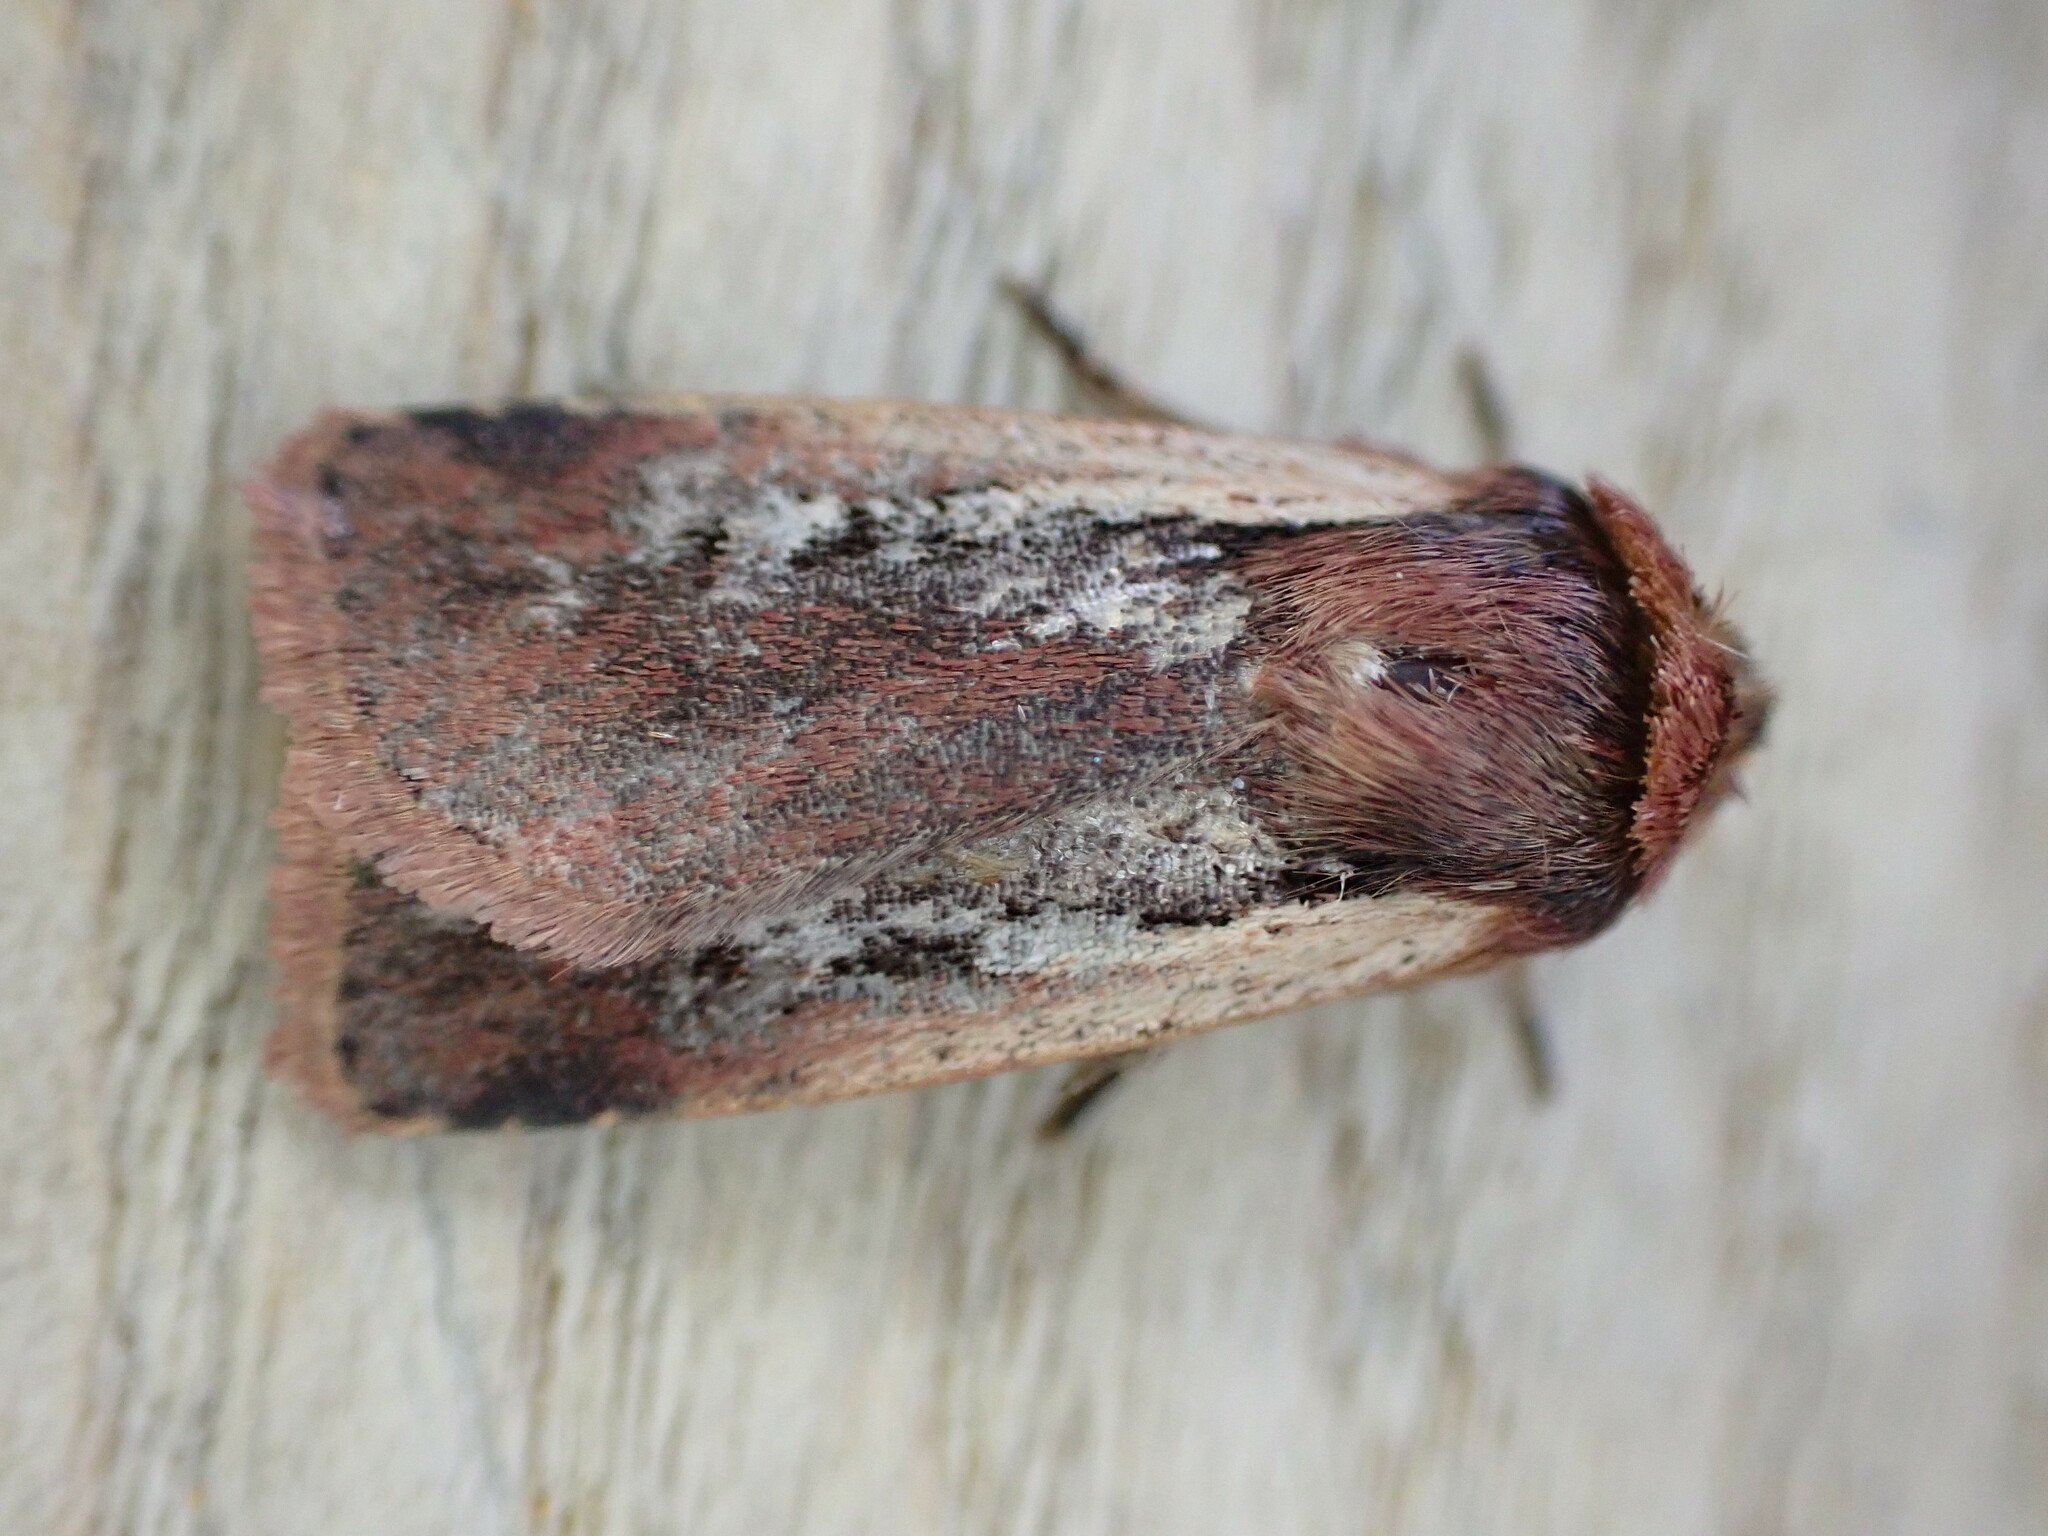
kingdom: Animalia
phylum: Arthropoda
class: Insecta
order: Lepidoptera
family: Noctuidae
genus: Ochropleura
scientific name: Ochropleura plecta
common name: Flame shoulder
